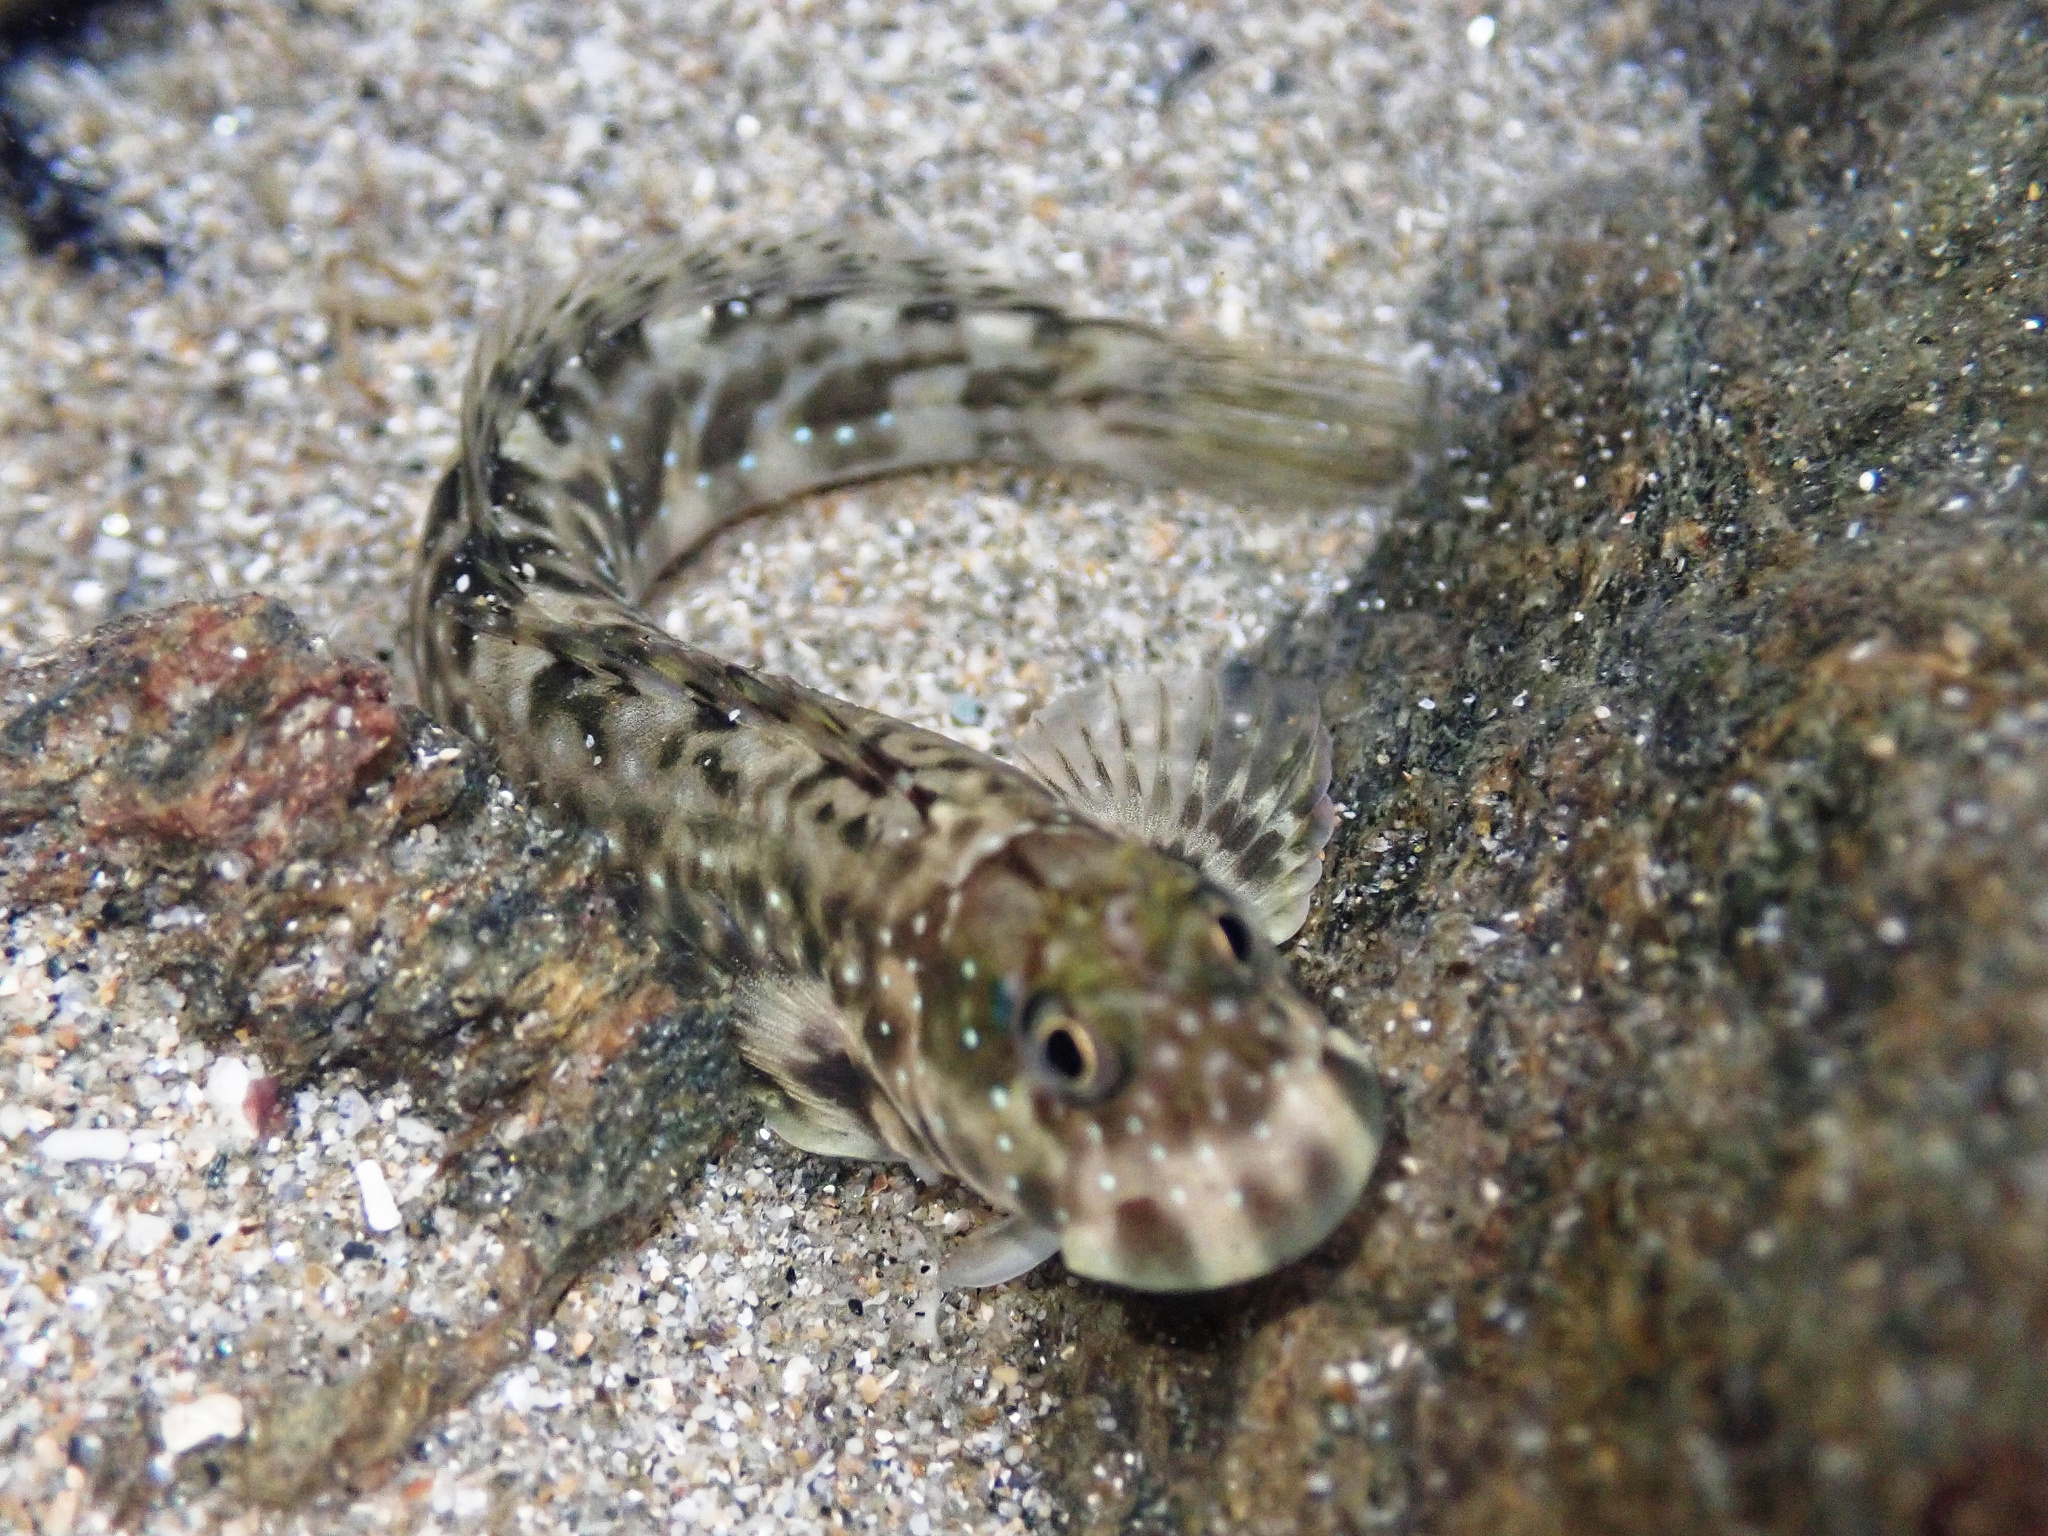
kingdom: Animalia
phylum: Chordata
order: Perciformes
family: Blenniidae
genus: Istiblennius
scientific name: Istiblennius meleagris
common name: Peacock rockskipper
